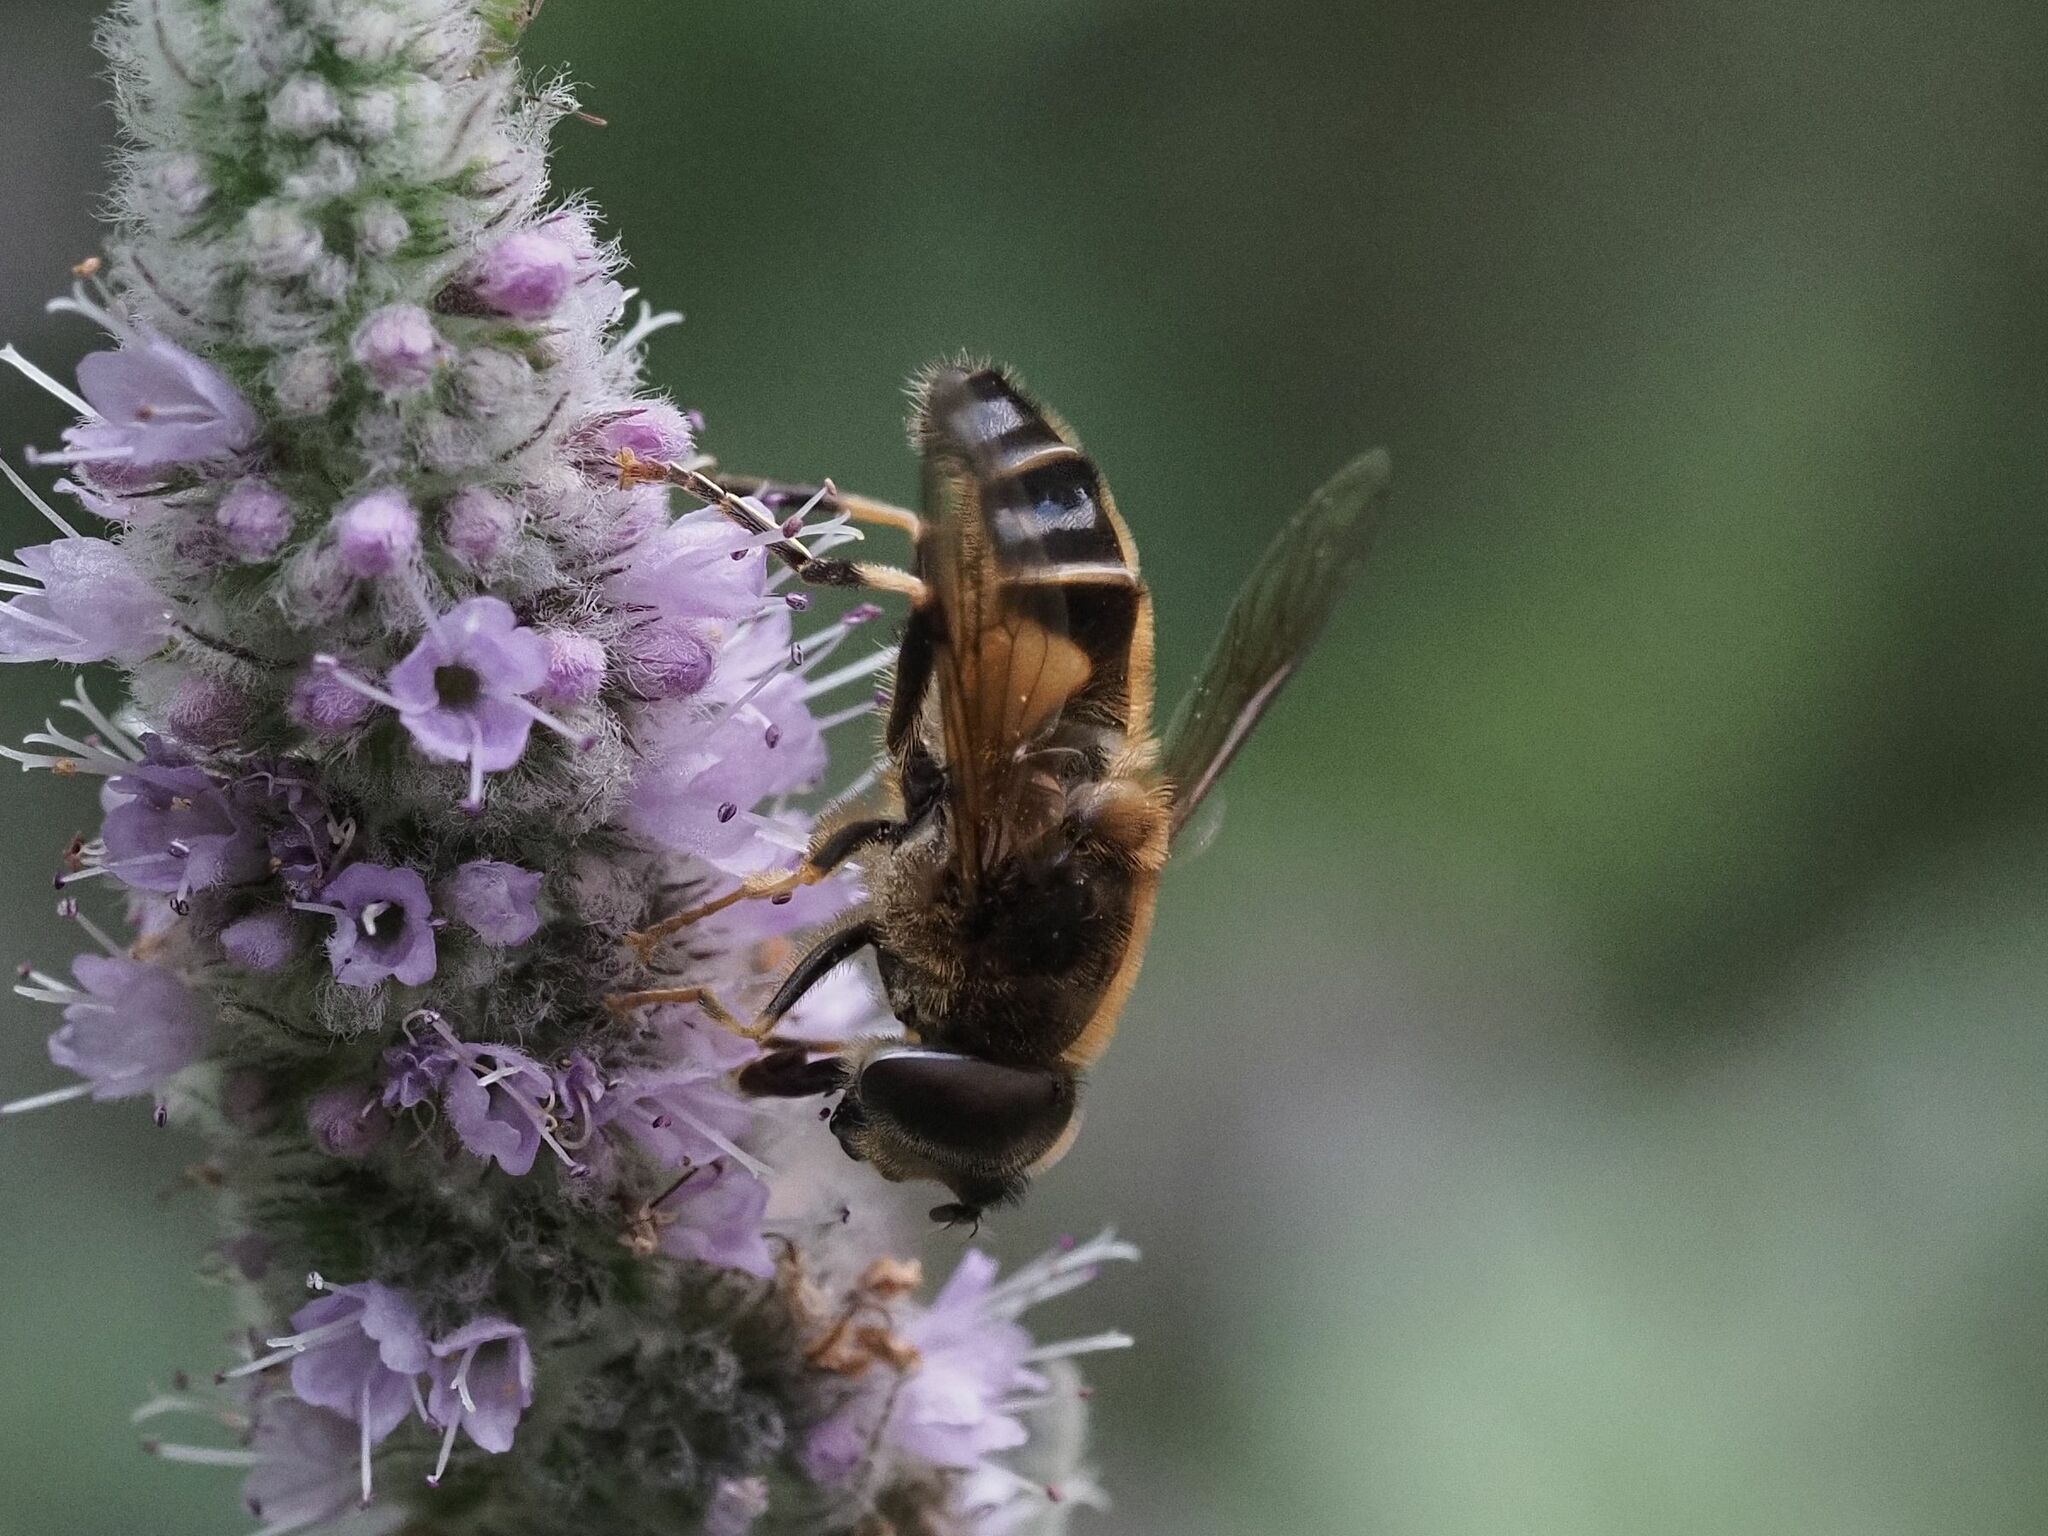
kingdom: Animalia
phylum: Arthropoda
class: Insecta
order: Diptera
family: Syrphidae
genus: Eristalis
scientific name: Eristalis pertinax
